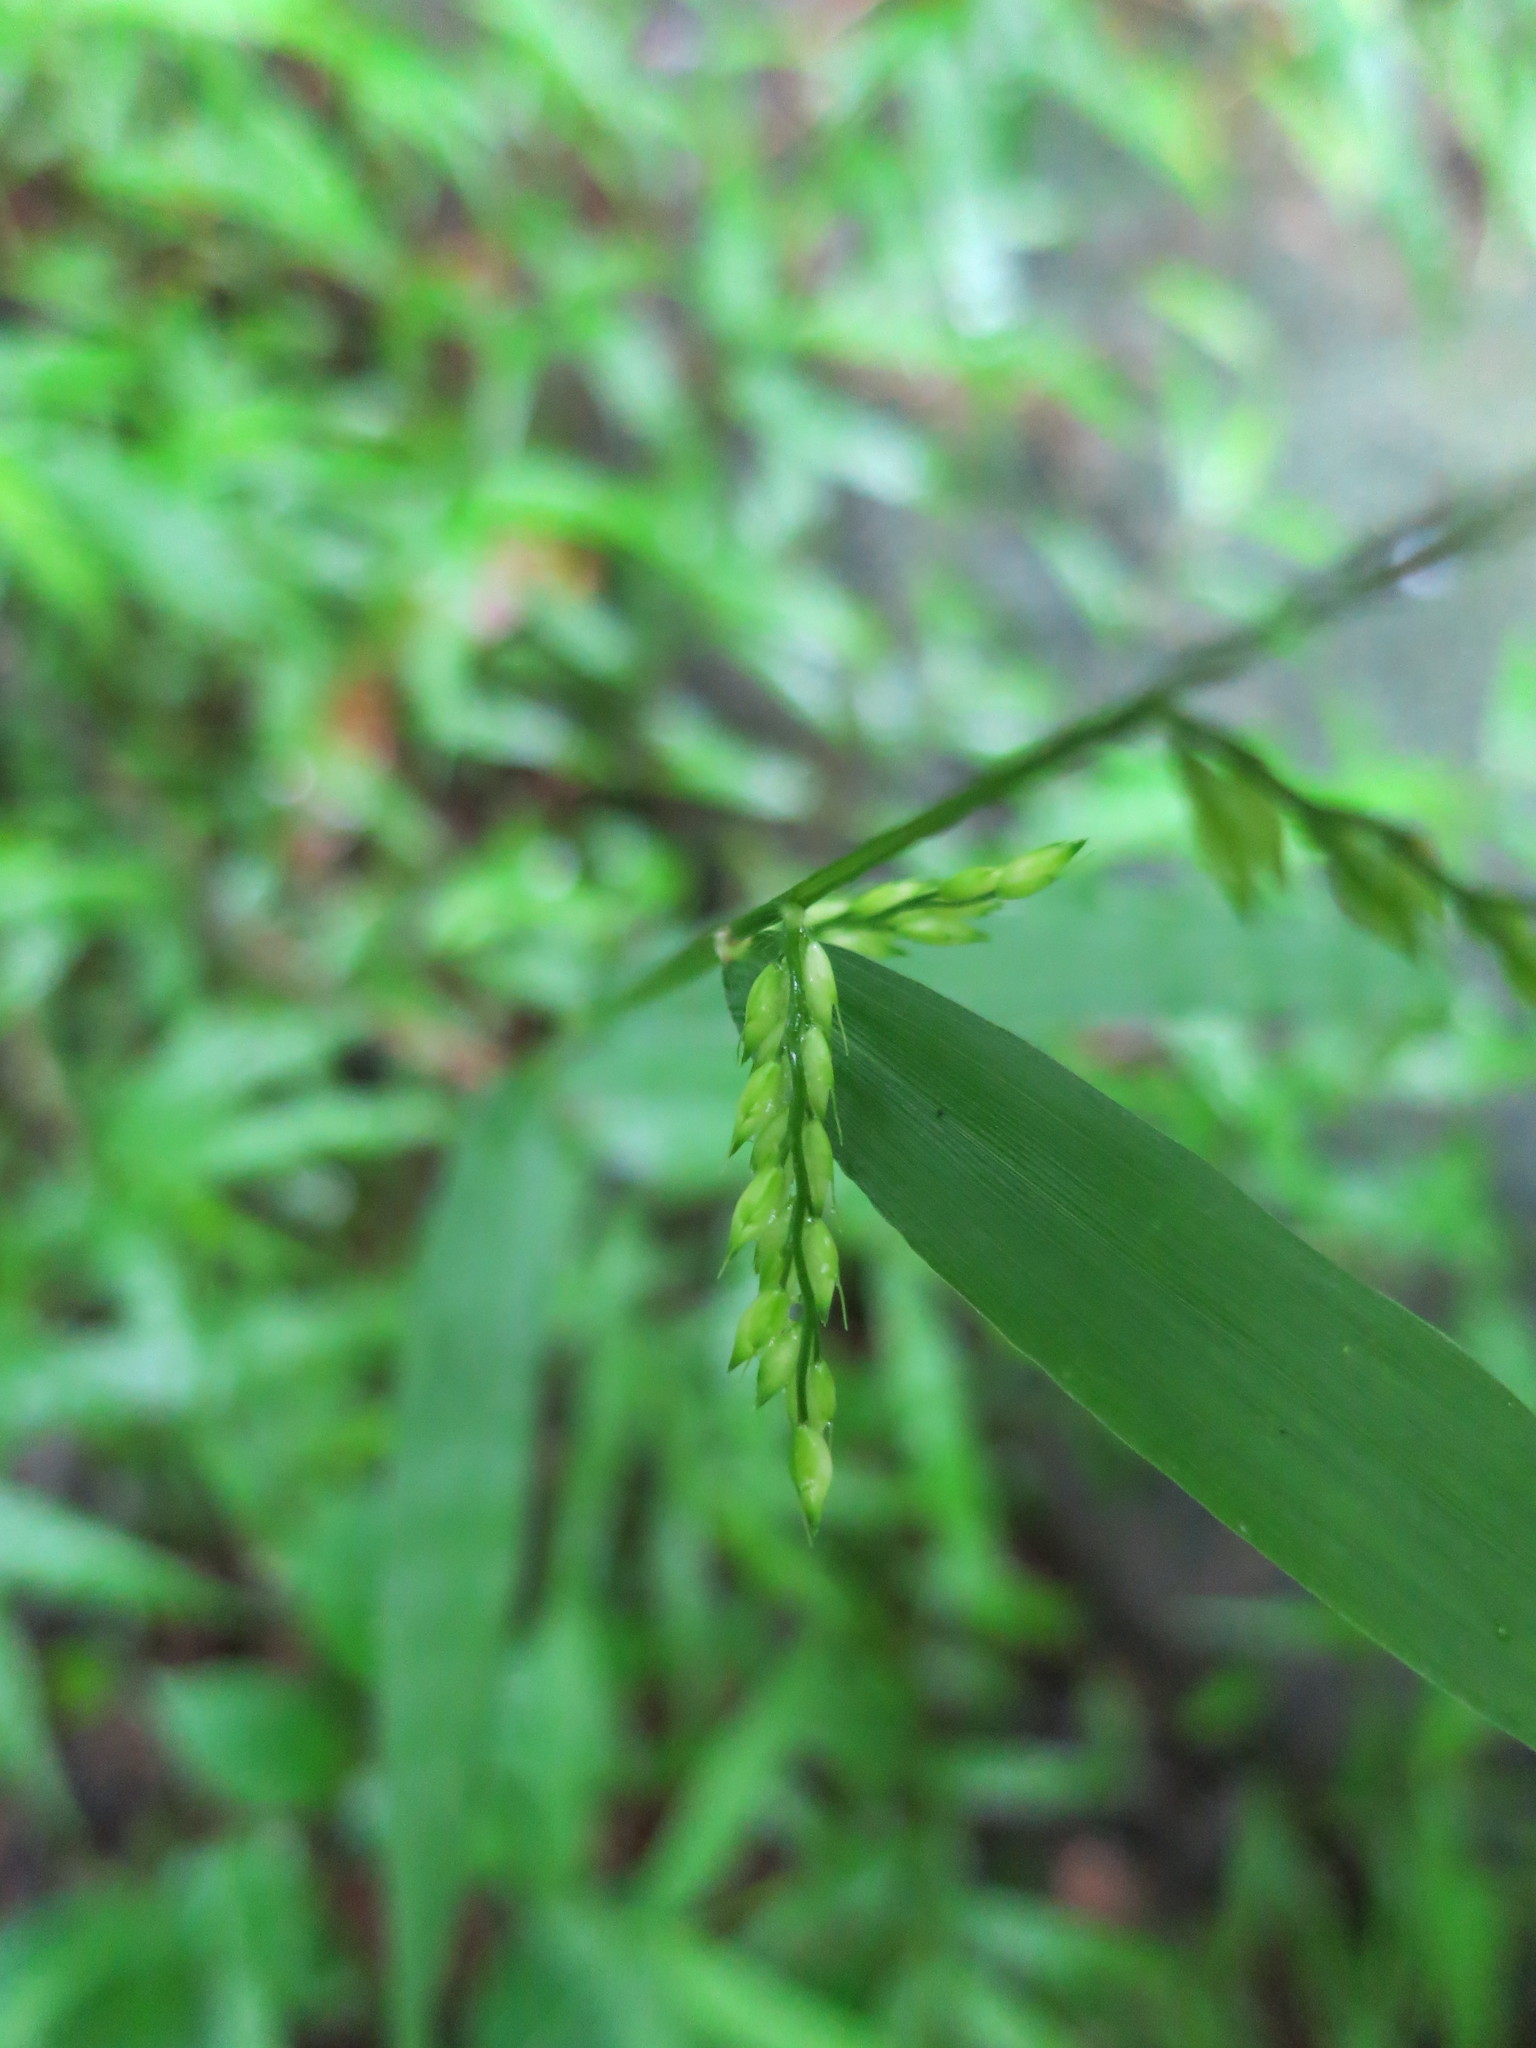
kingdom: Plantae
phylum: Tracheophyta
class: Liliopsida
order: Poales
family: Poaceae
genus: Oplismenus
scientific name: Oplismenus flavicomus
